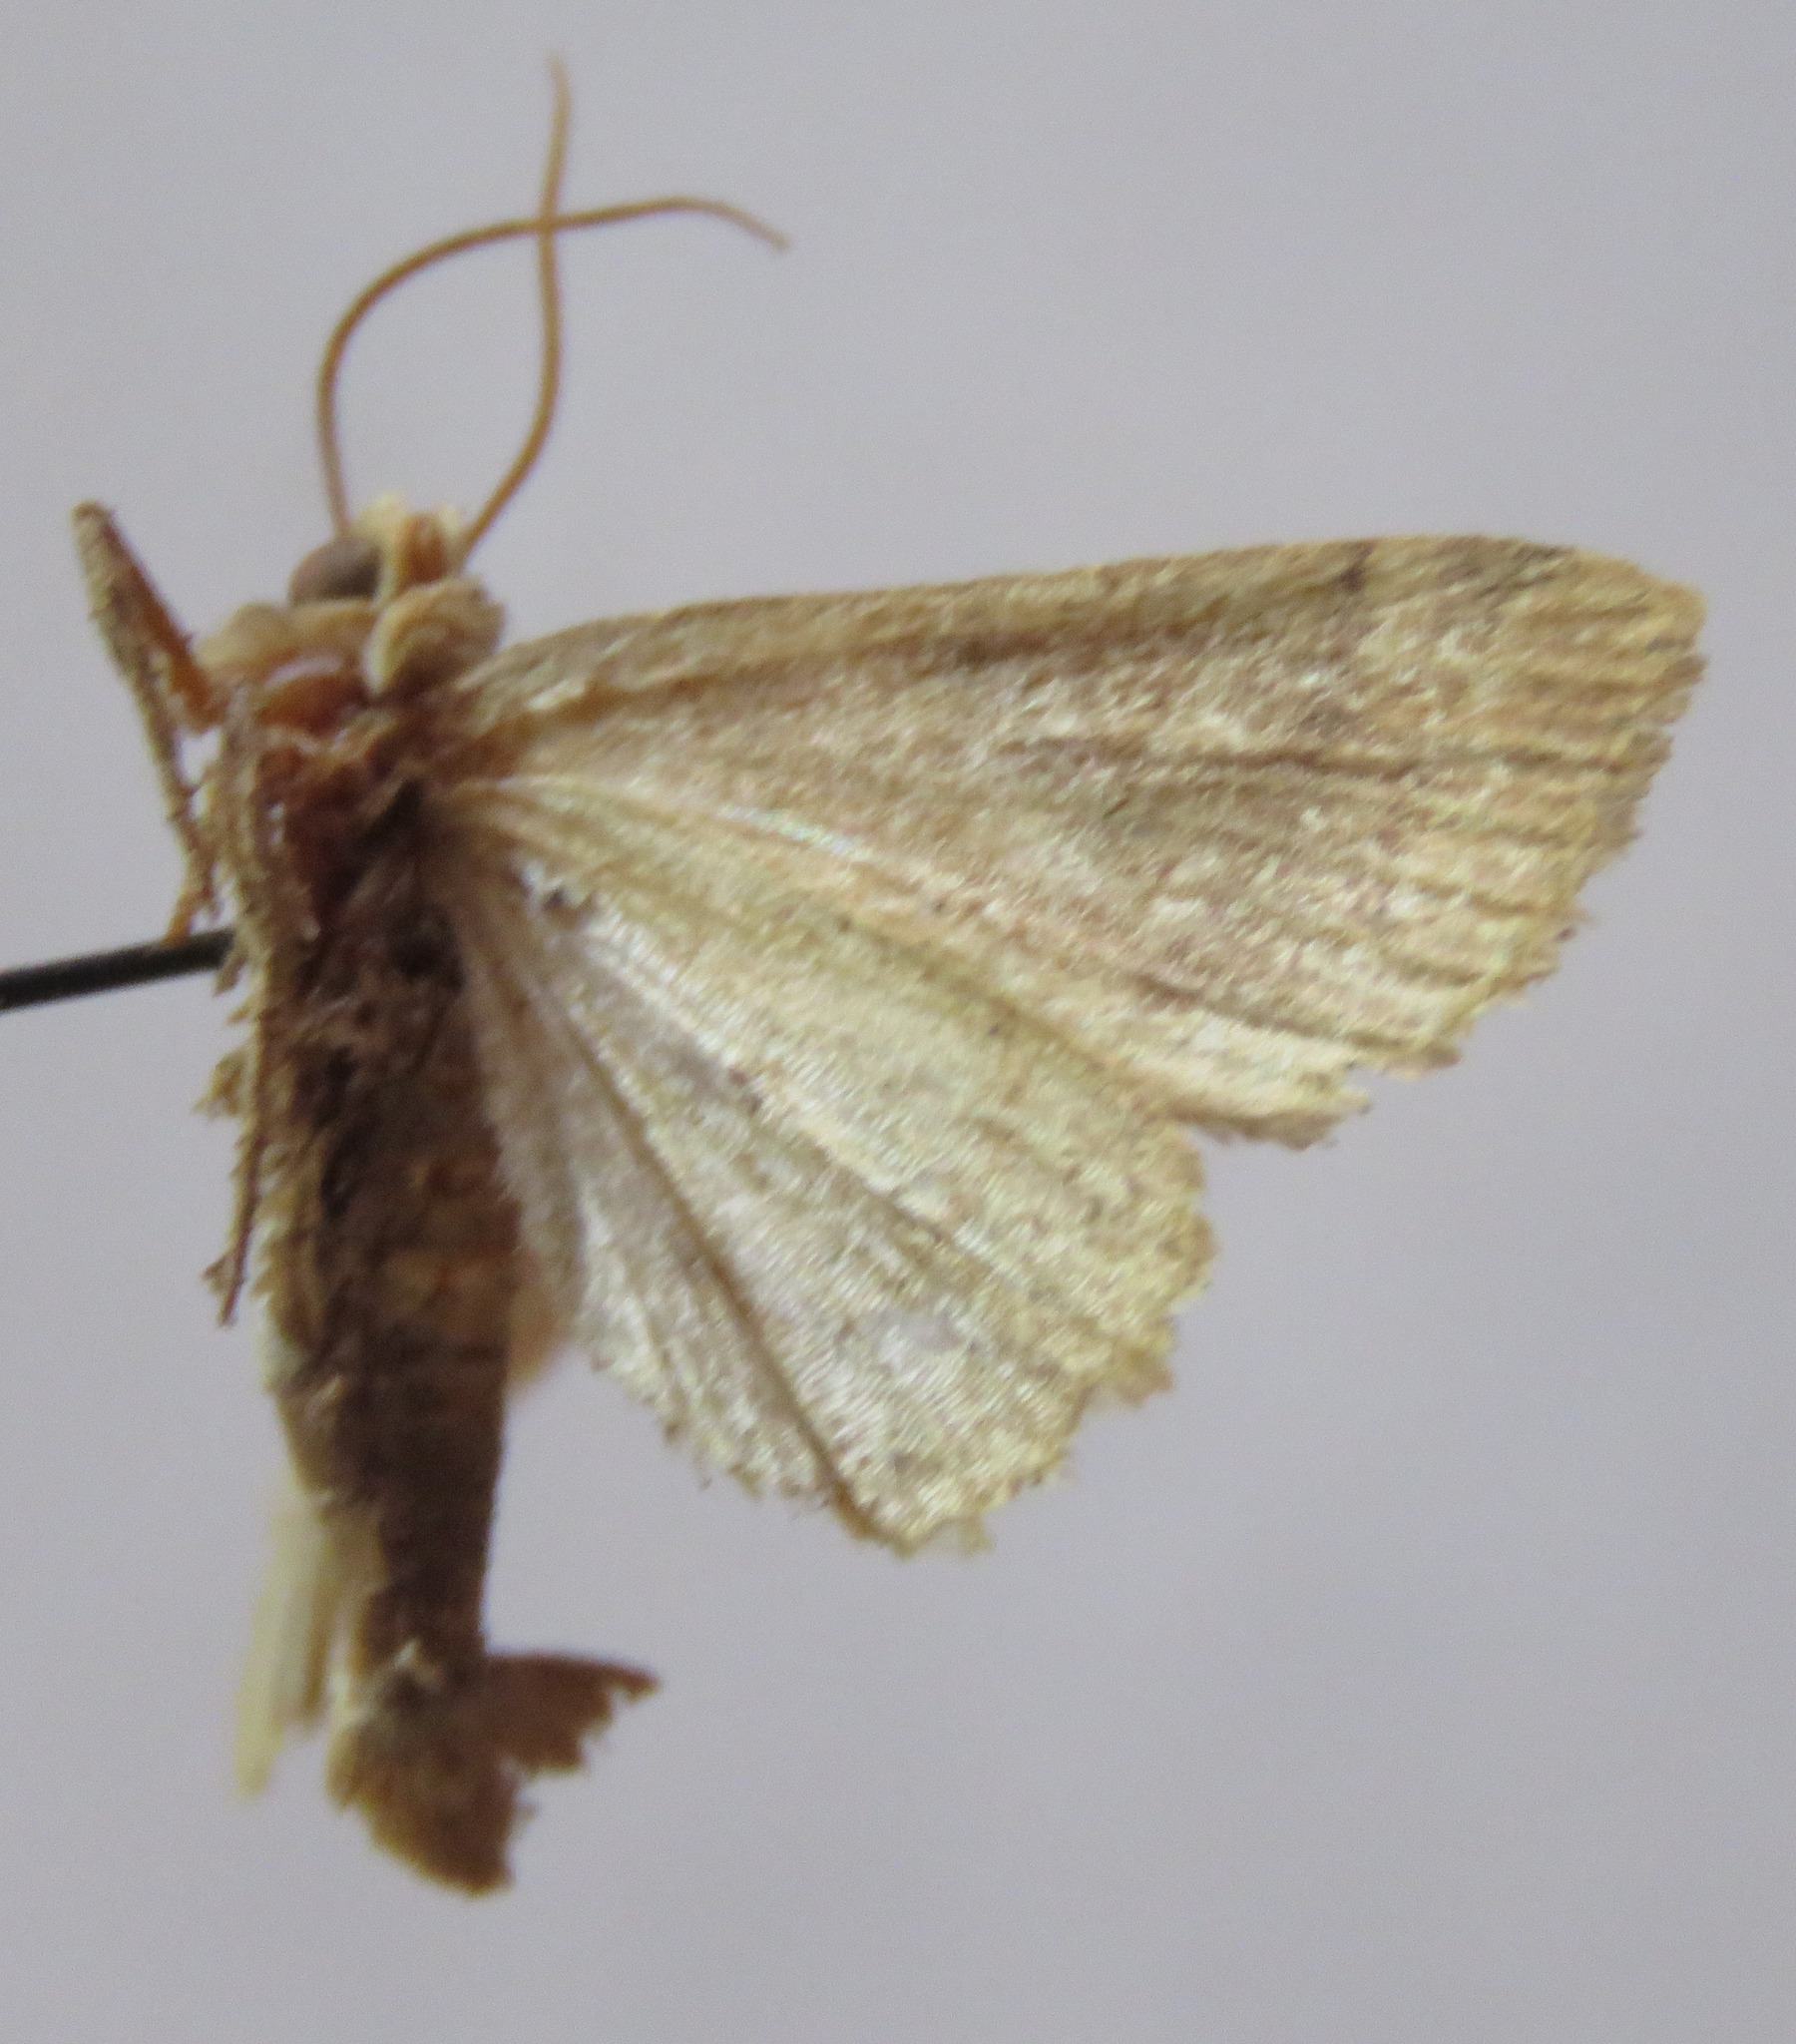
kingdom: Animalia
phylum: Arthropoda
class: Insecta
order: Lepidoptera
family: Noctuidae
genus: Cosmia
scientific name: Cosmia trapezina
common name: Dun-bar
